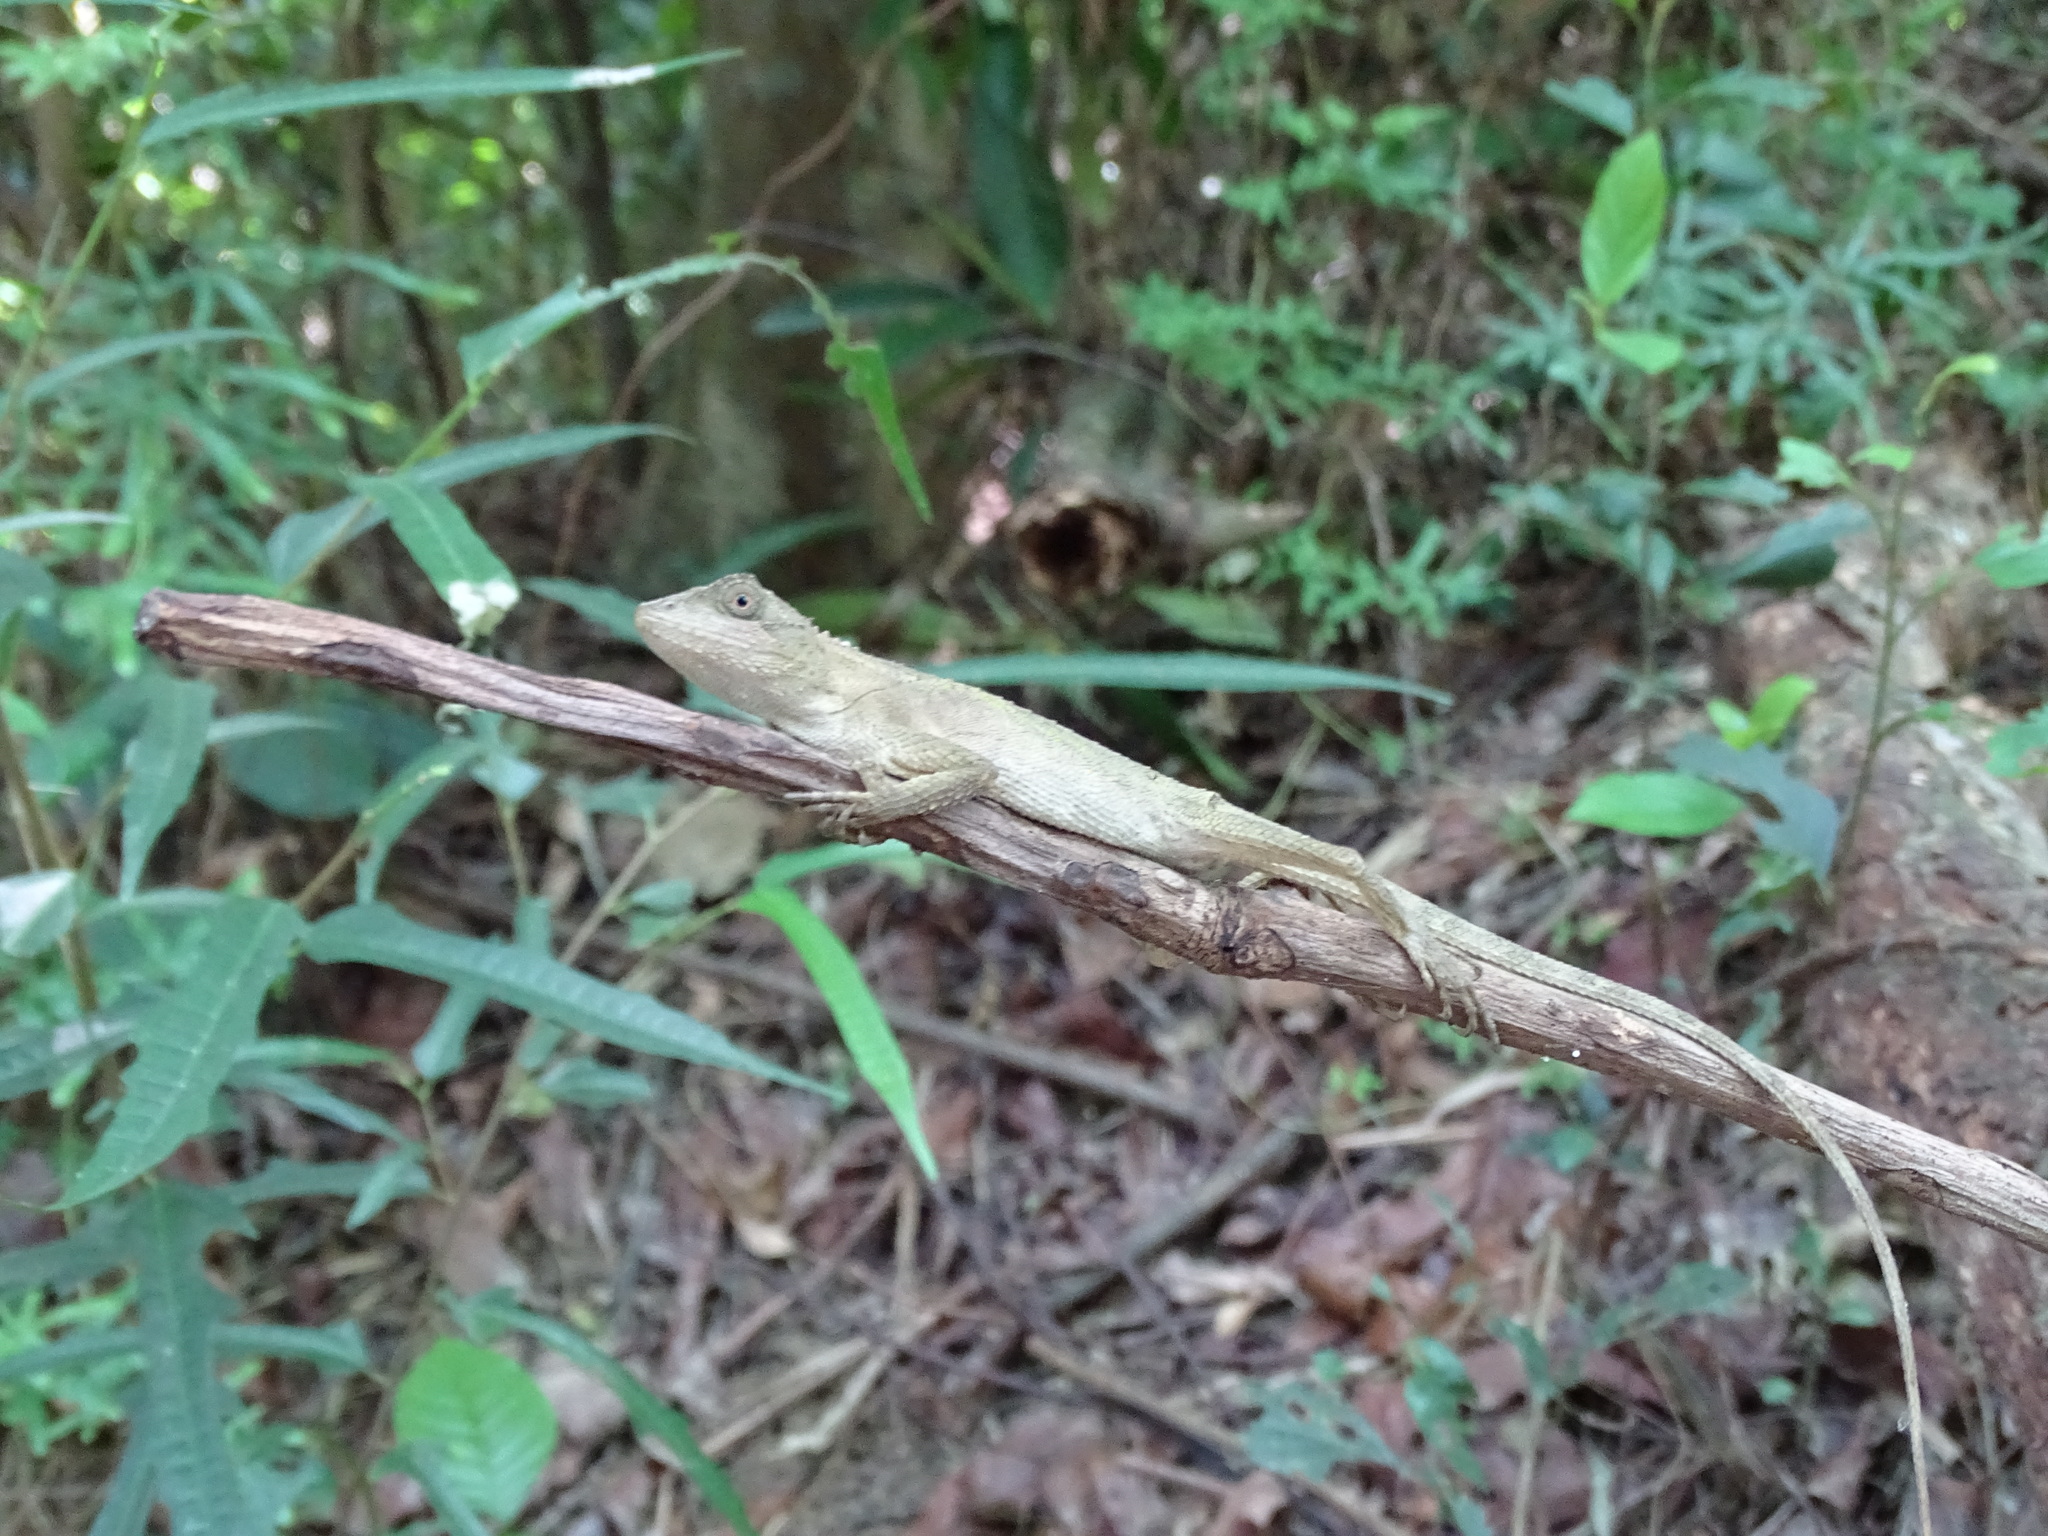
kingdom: Animalia
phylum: Chordata
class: Squamata
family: Agamidae
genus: Diploderma
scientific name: Diploderma swinhonis
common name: Taiwan japalure
